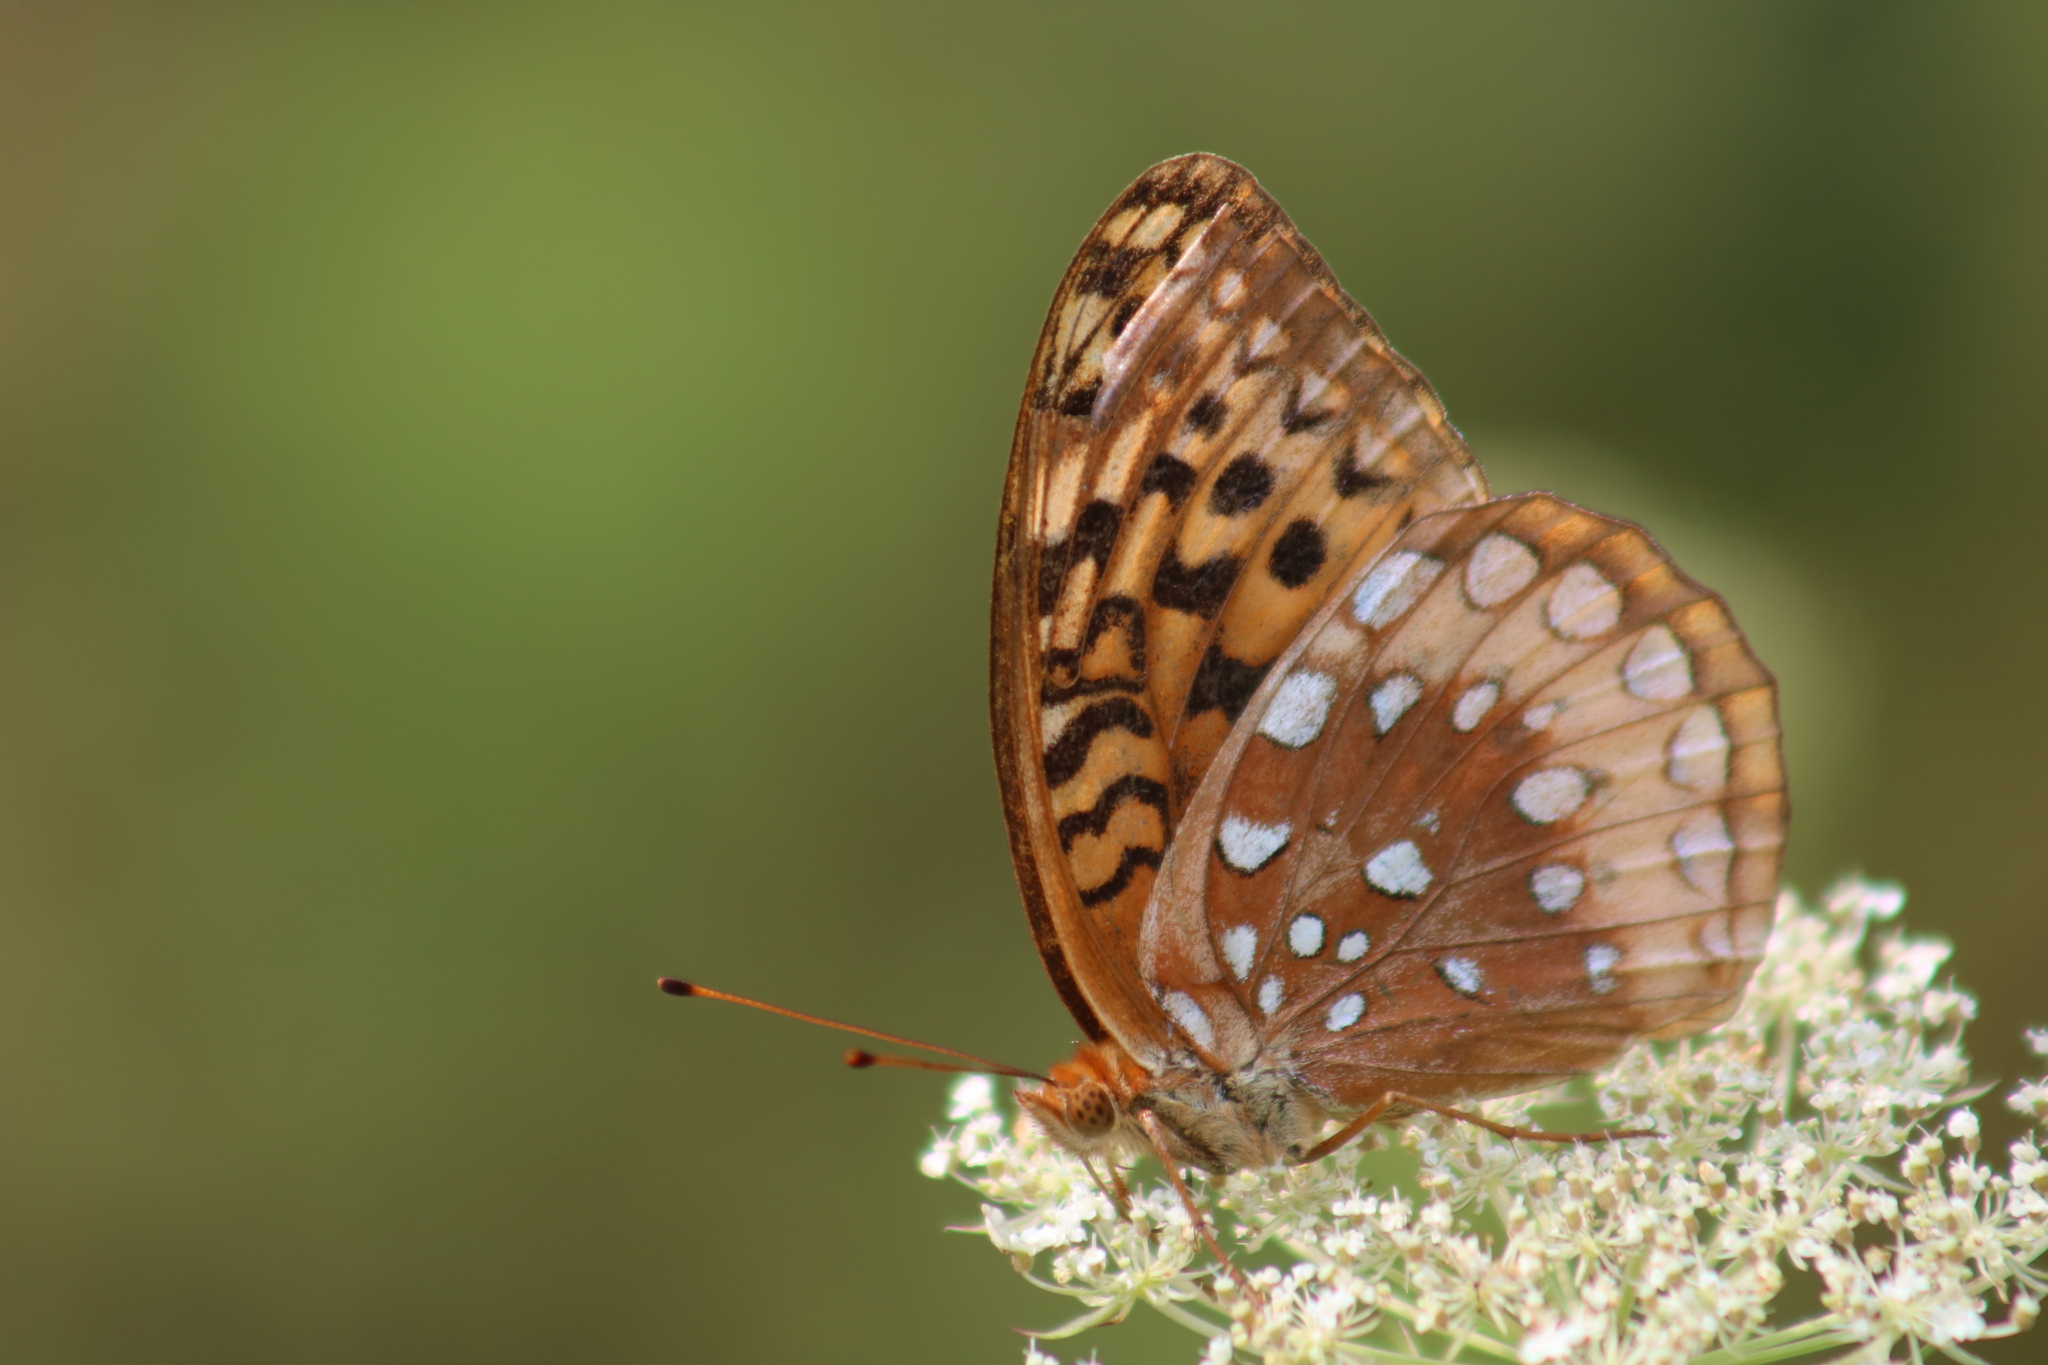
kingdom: Animalia
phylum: Arthropoda
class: Insecta
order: Lepidoptera
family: Nymphalidae
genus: Speyeria
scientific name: Speyeria cybele
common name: Great spangled fritillary
